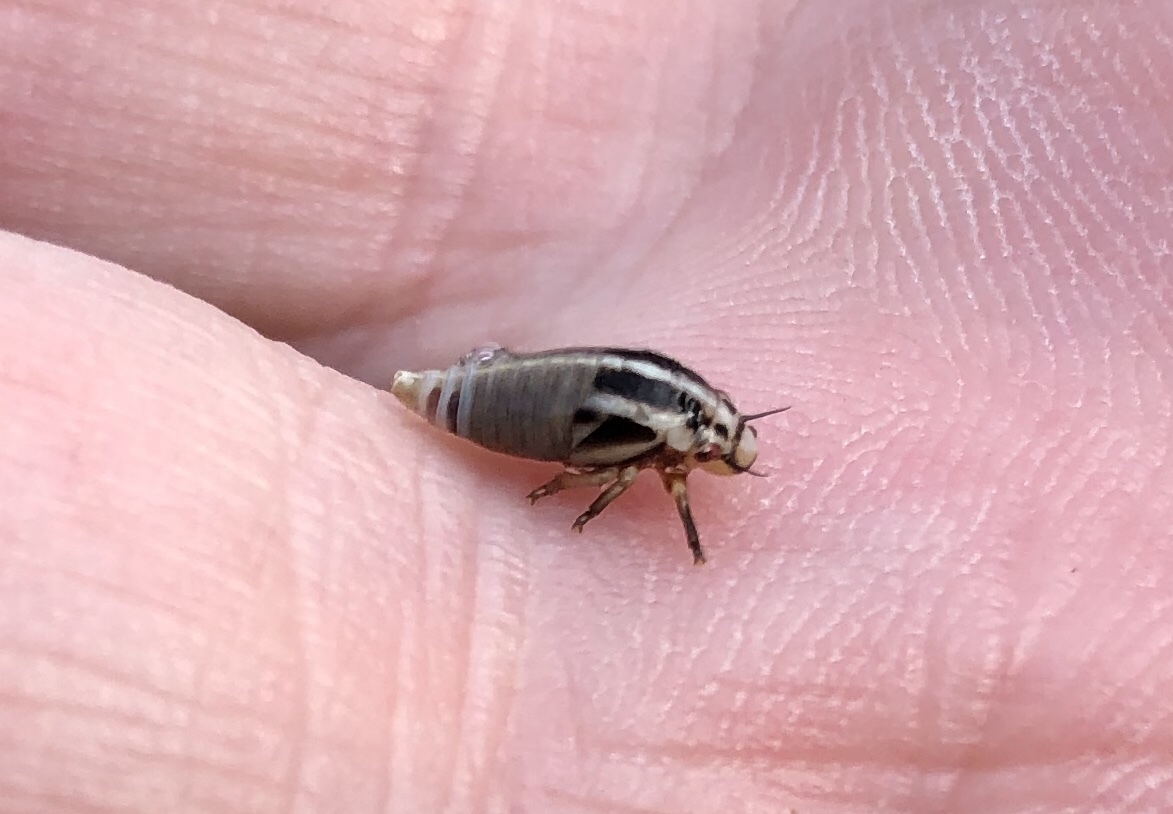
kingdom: Animalia
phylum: Arthropoda
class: Insecta
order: Hemiptera
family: Aphrophoridae
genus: Lepyronia
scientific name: Lepyronia gibbosa
